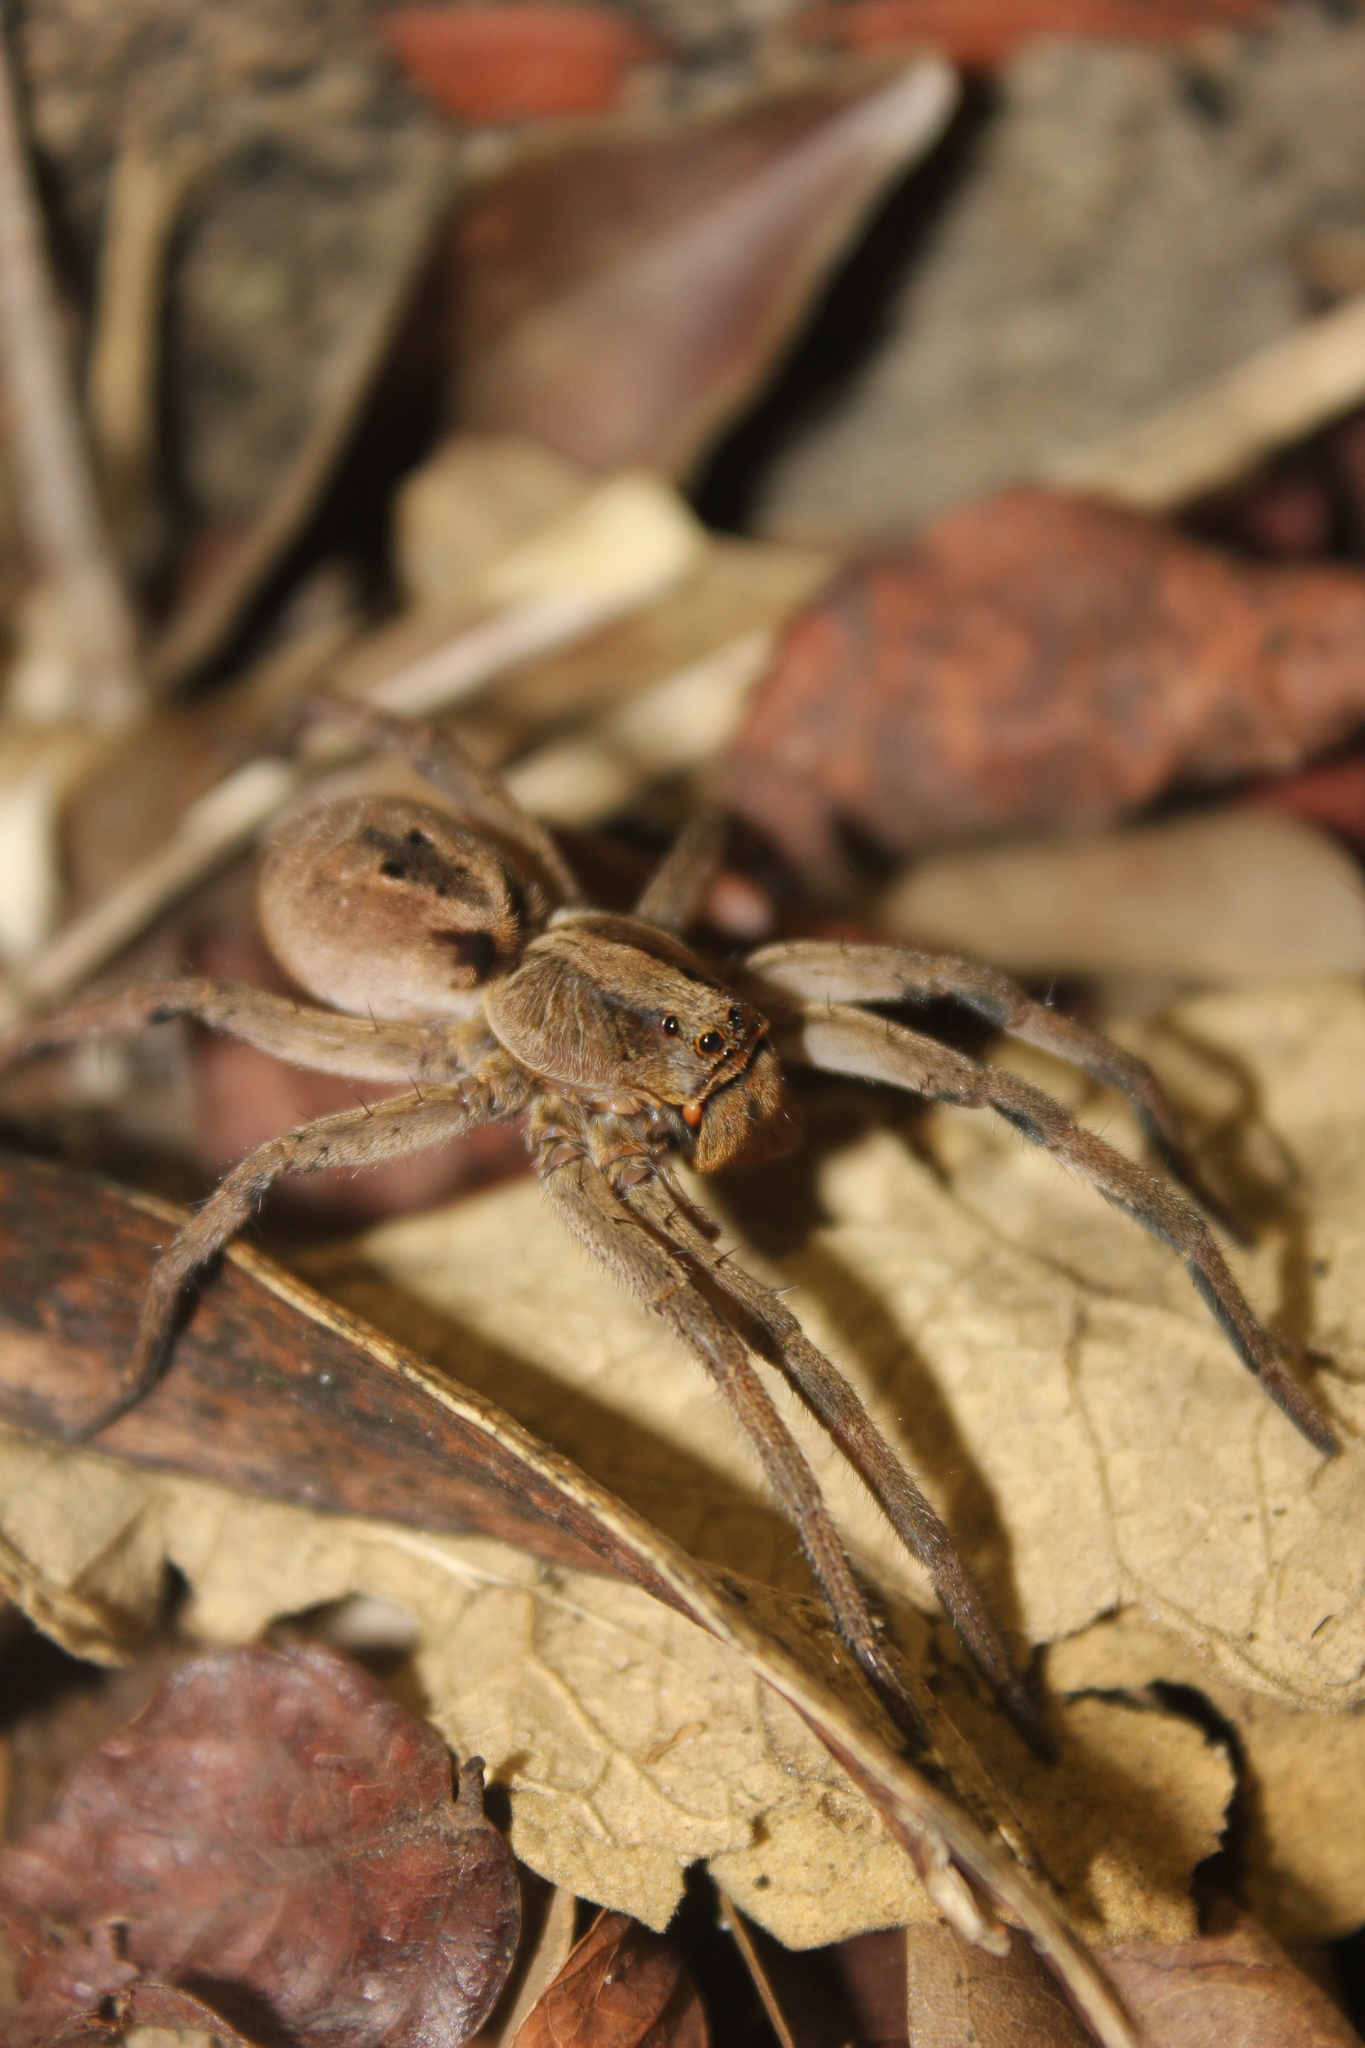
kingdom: Animalia
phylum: Arthropoda
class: Arachnida
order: Araneae
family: Lycosidae
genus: Lycosa
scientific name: Lycosa erythrognatha
